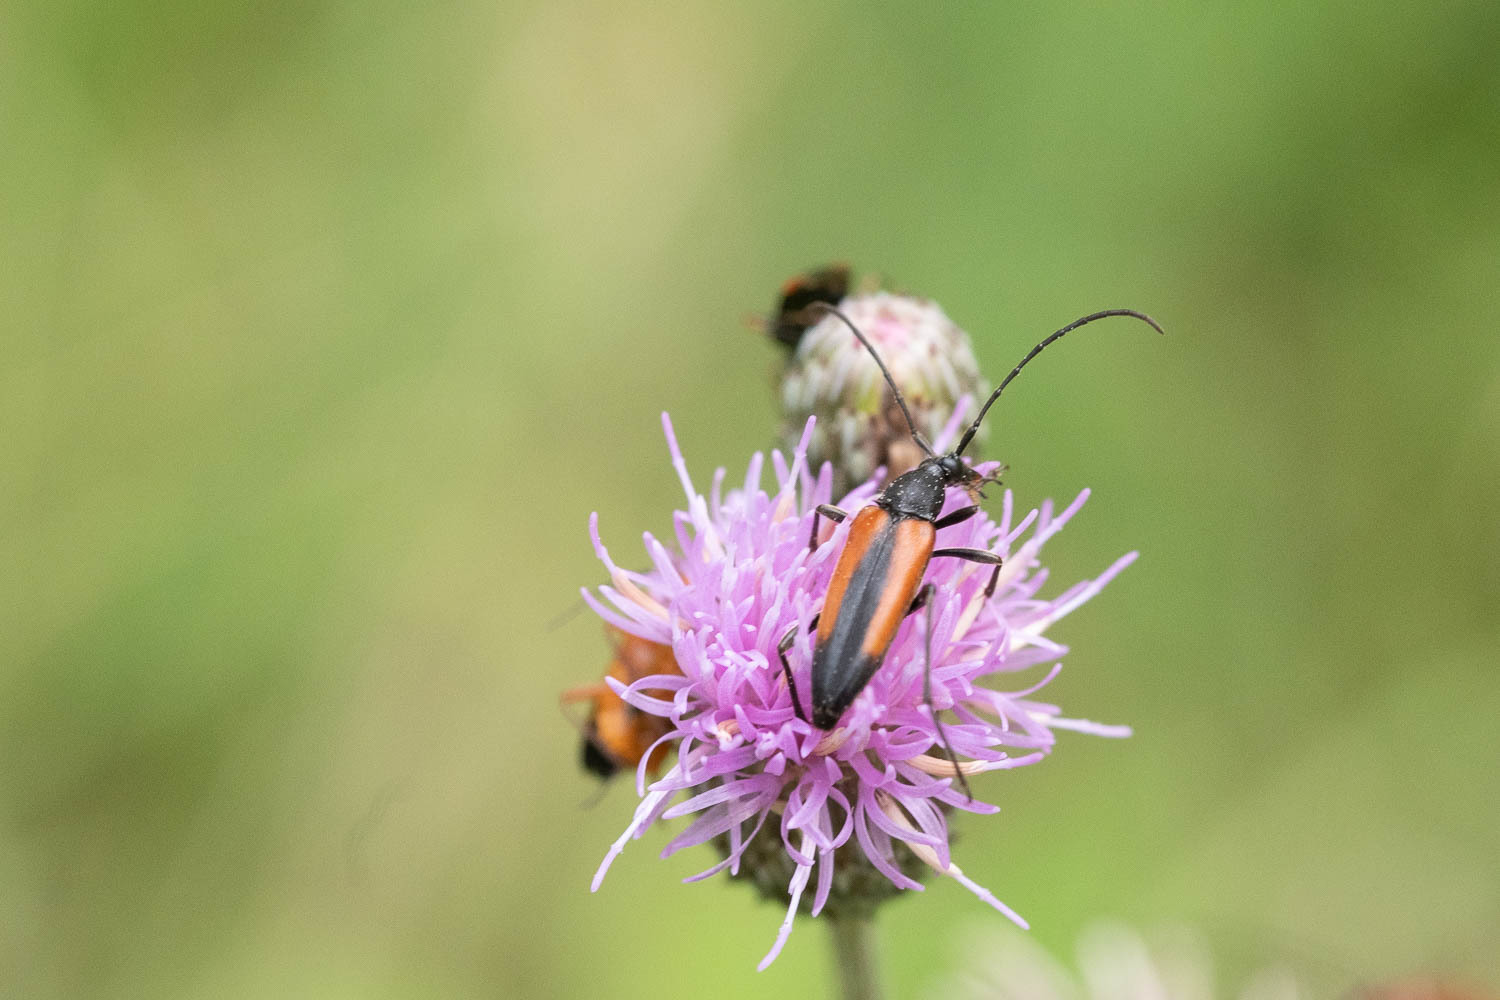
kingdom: Animalia
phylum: Arthropoda
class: Insecta
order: Coleoptera
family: Cerambycidae
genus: Stenurella
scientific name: Stenurella melanura
